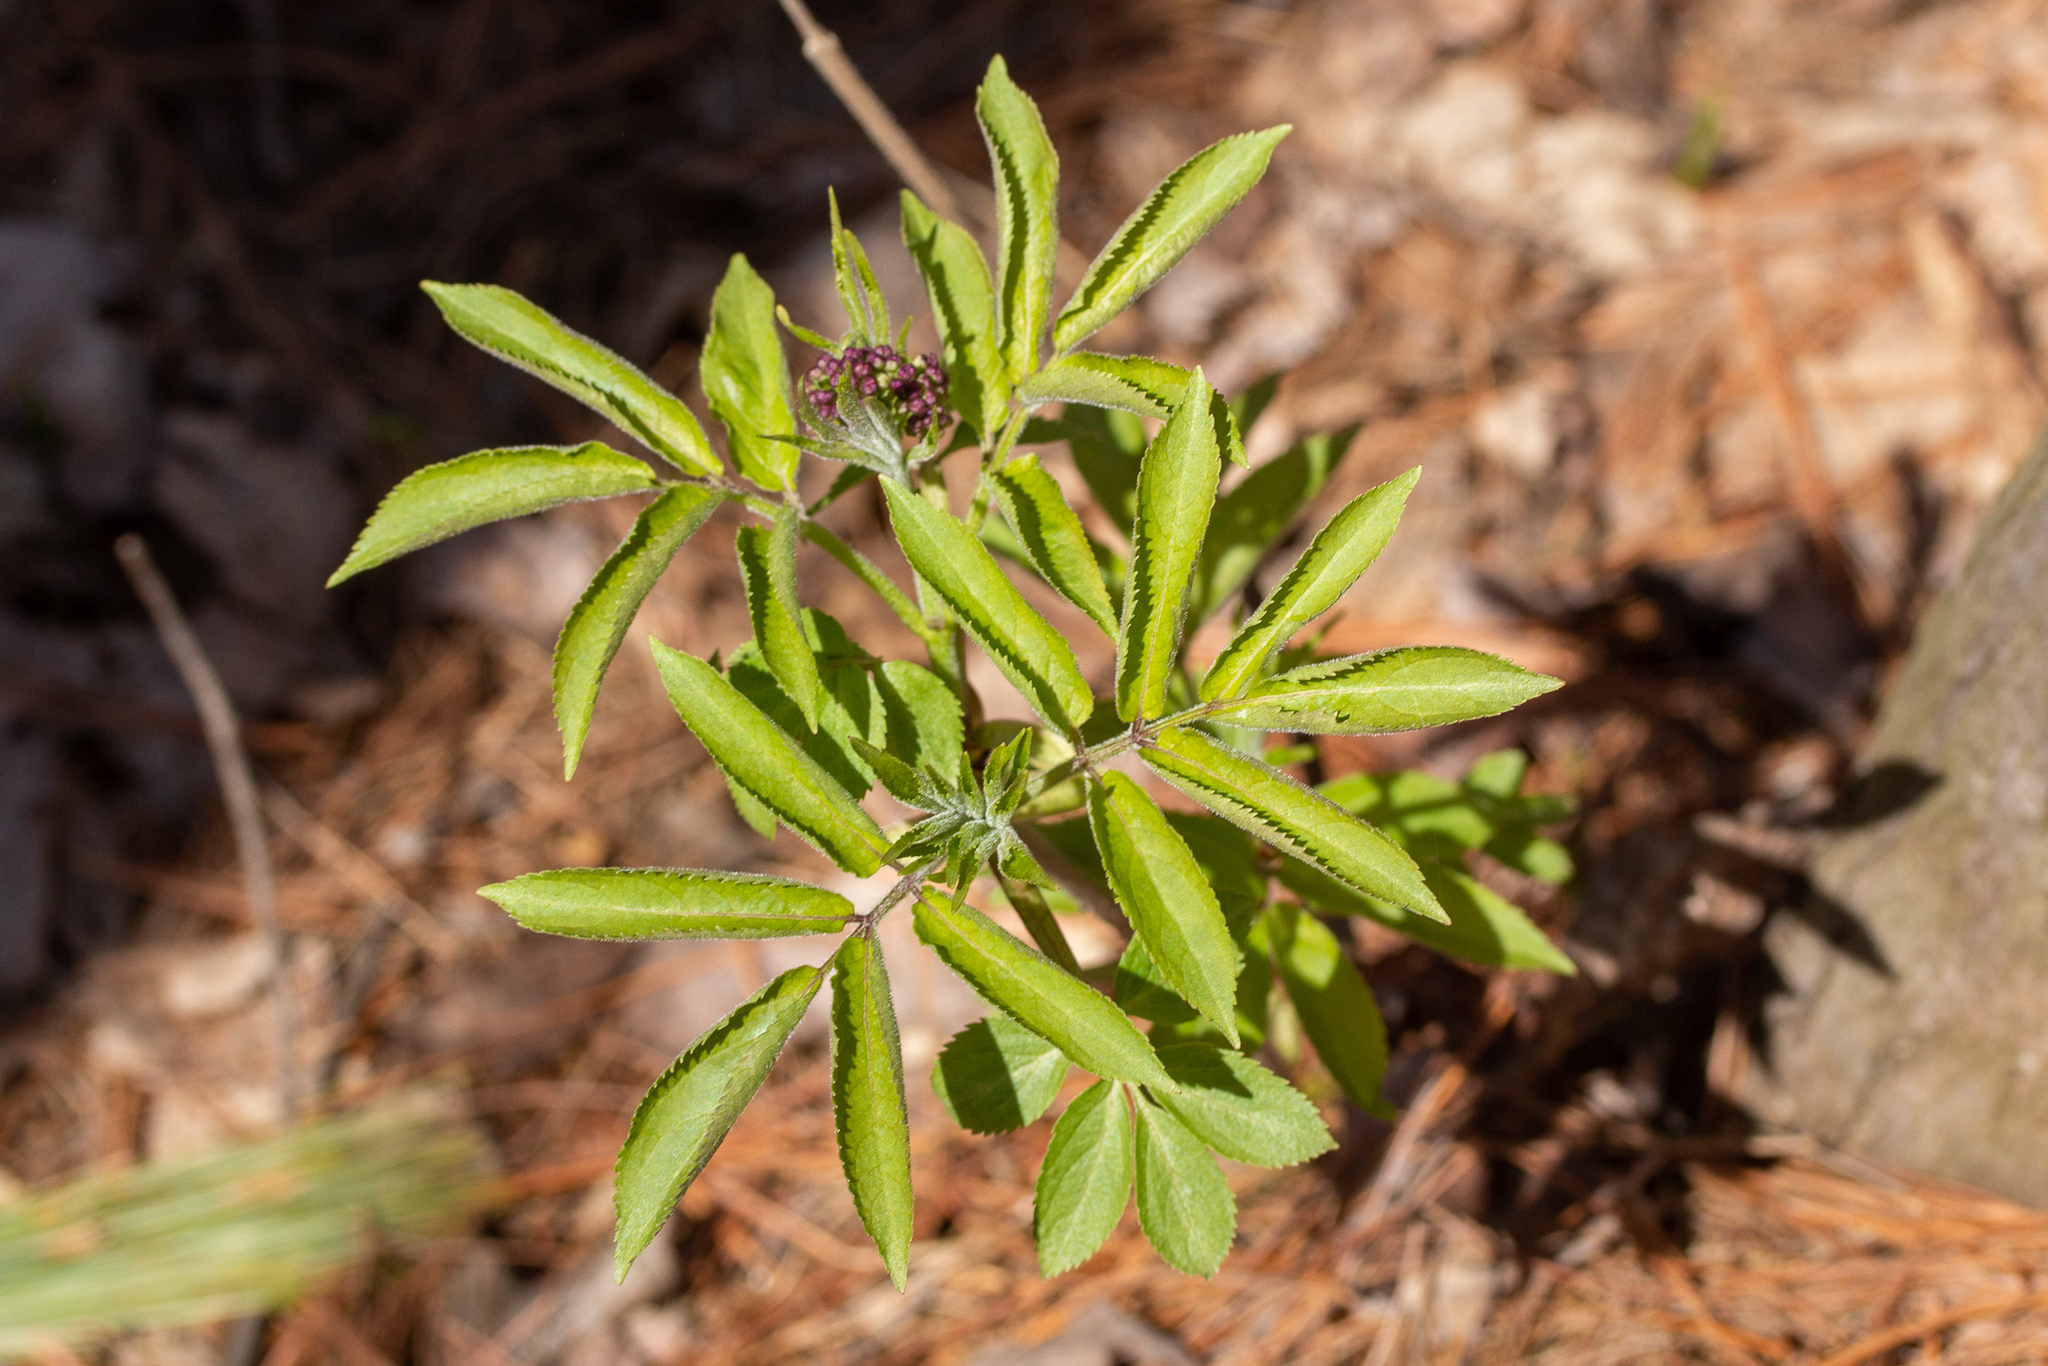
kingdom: Plantae
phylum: Tracheophyta
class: Magnoliopsida
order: Dipsacales
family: Viburnaceae
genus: Sambucus
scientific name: Sambucus racemosa
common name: Red-berried elder
